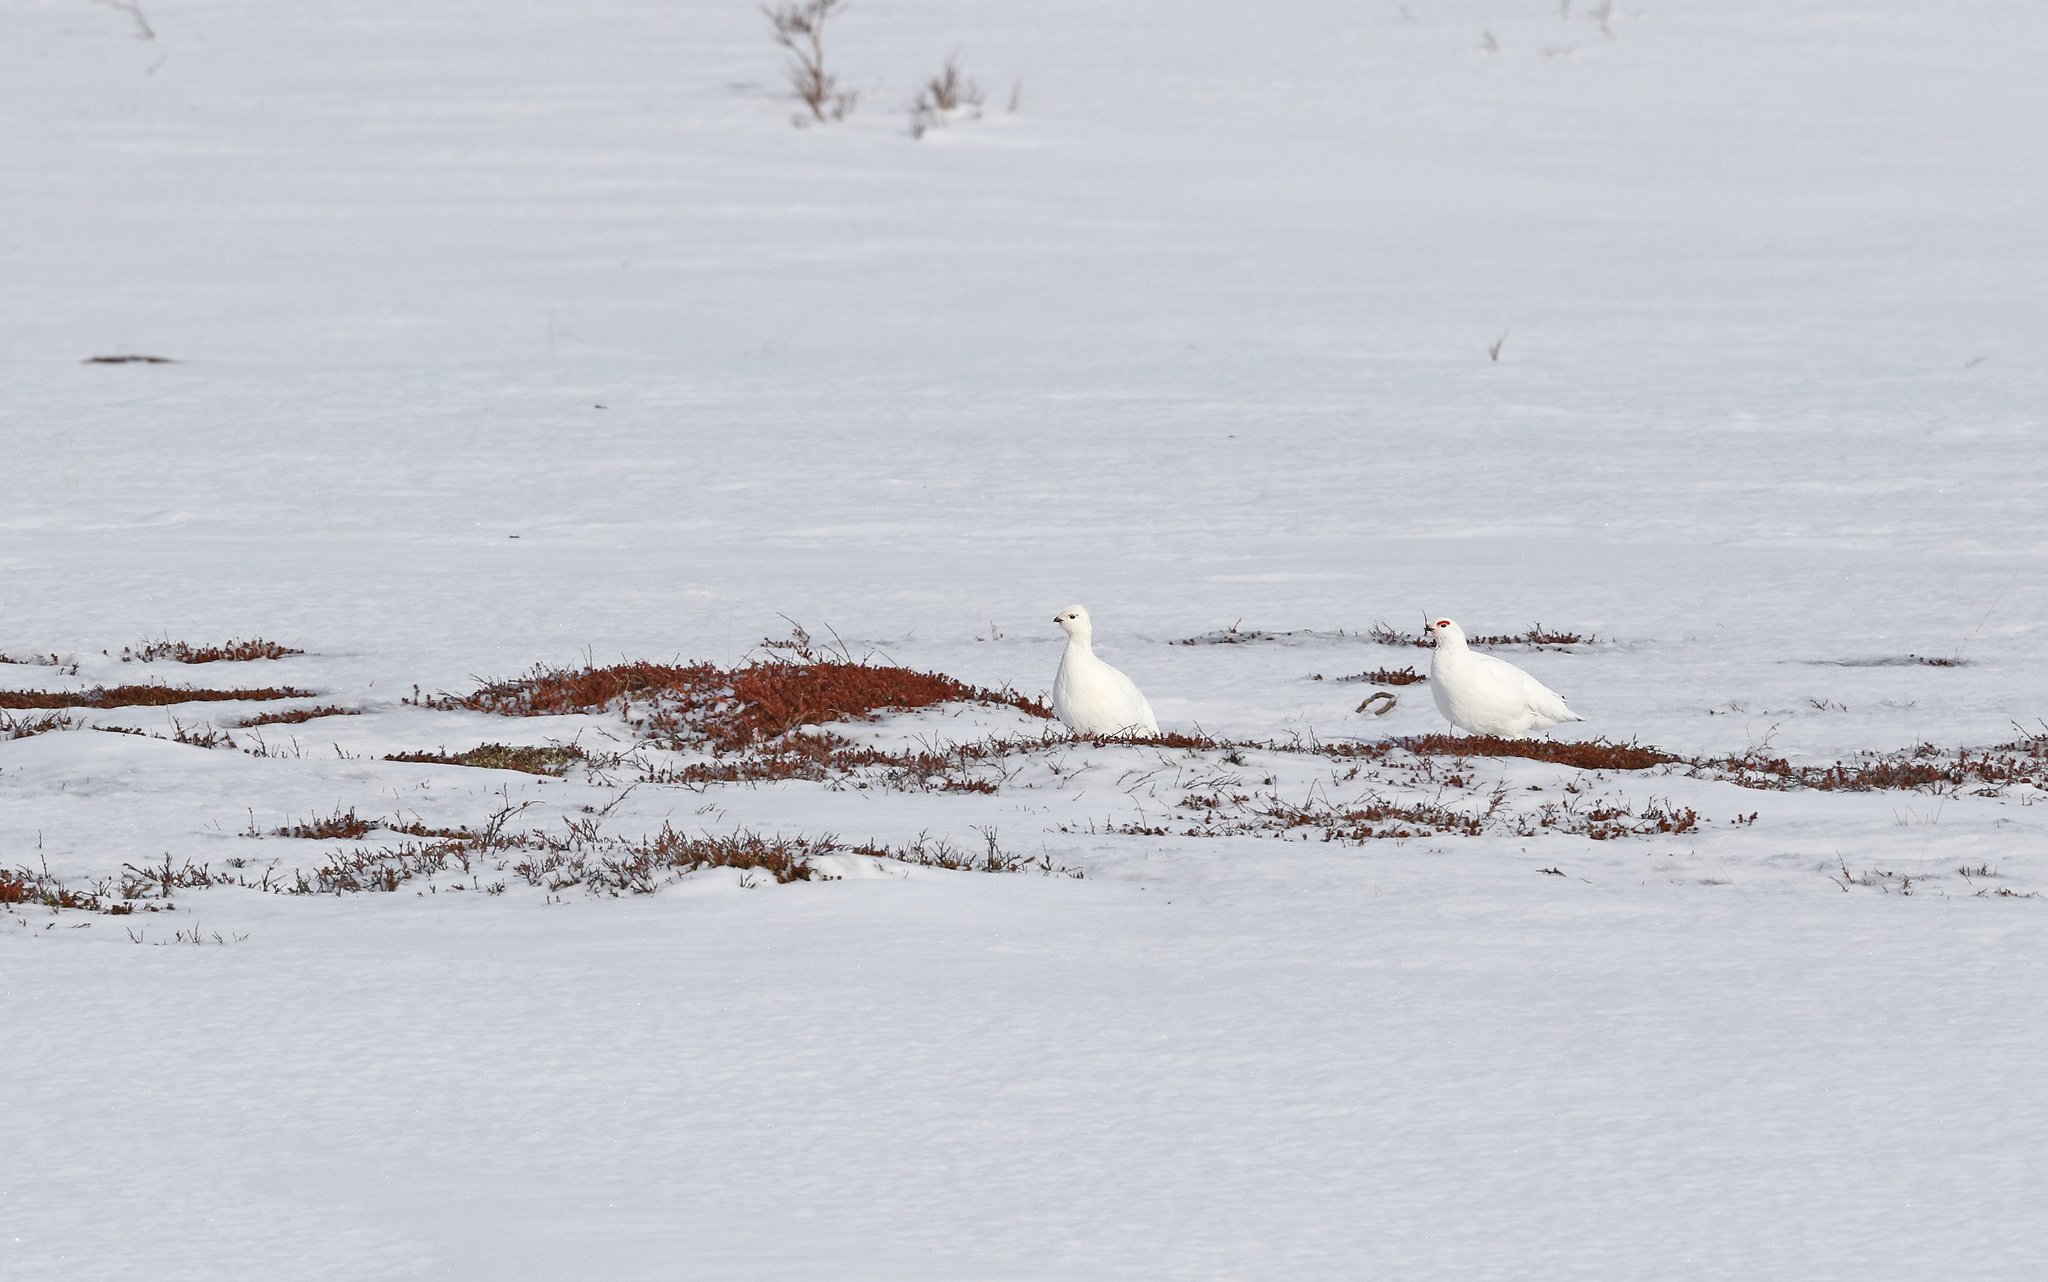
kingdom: Animalia
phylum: Chordata
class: Aves
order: Galliformes
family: Phasianidae
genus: Lagopus
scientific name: Lagopus lagopus
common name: Willow ptarmigan
